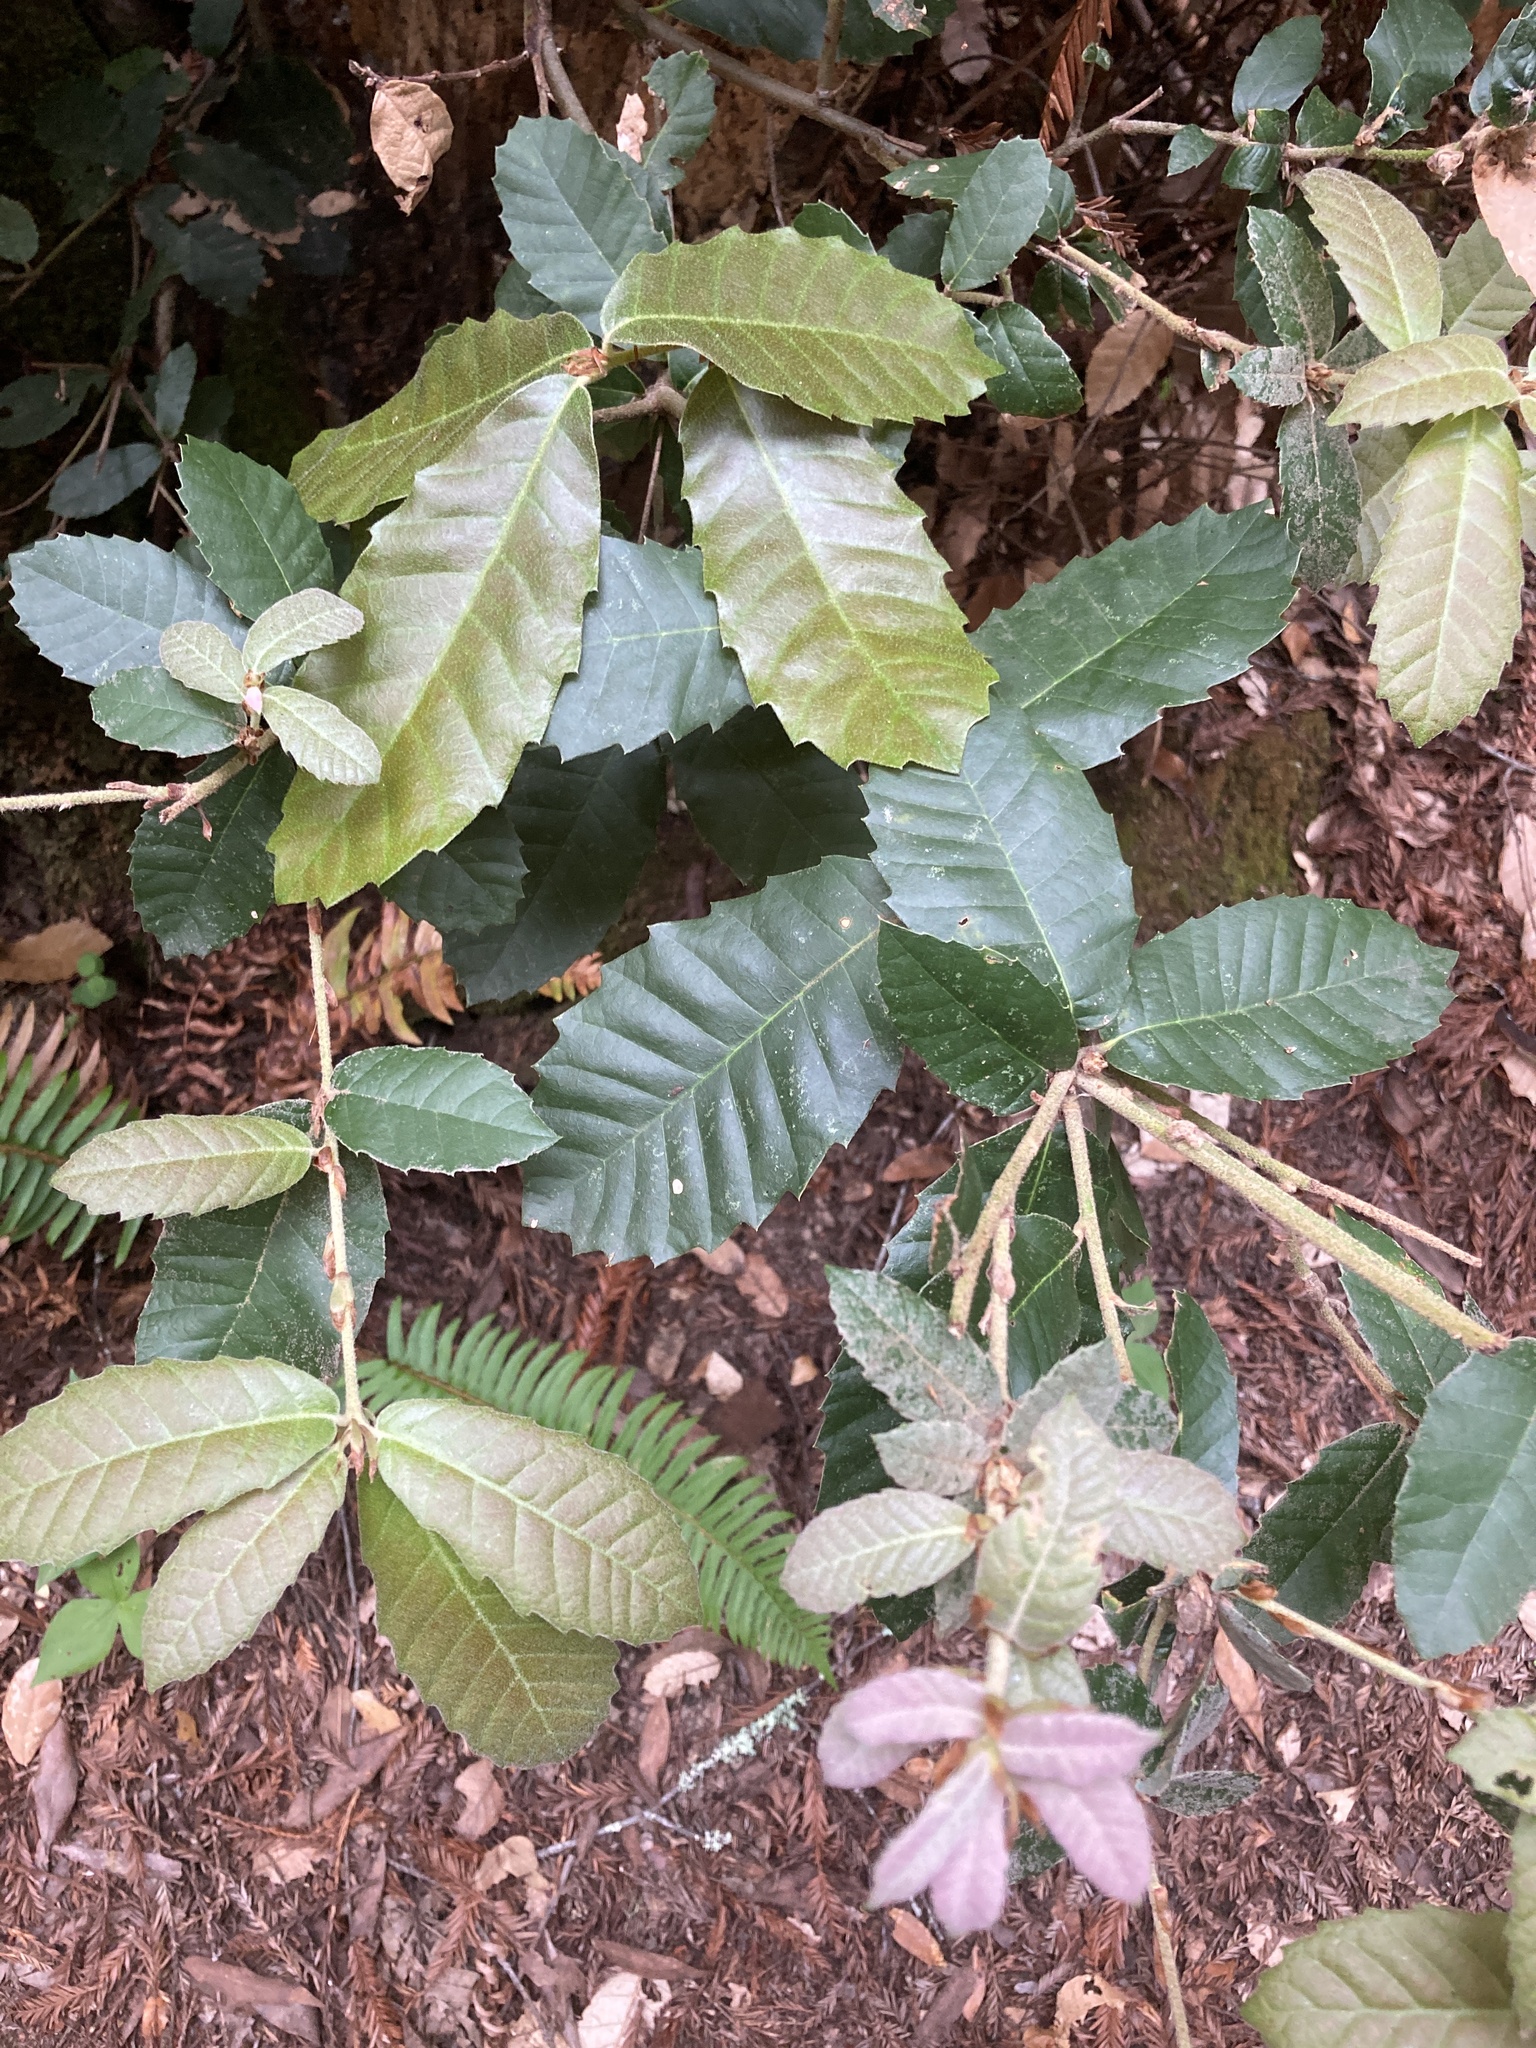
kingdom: Plantae
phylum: Tracheophyta
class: Magnoliopsida
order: Fagales
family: Fagaceae
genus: Notholithocarpus
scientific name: Notholithocarpus densiflorus
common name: Tan bark oak
